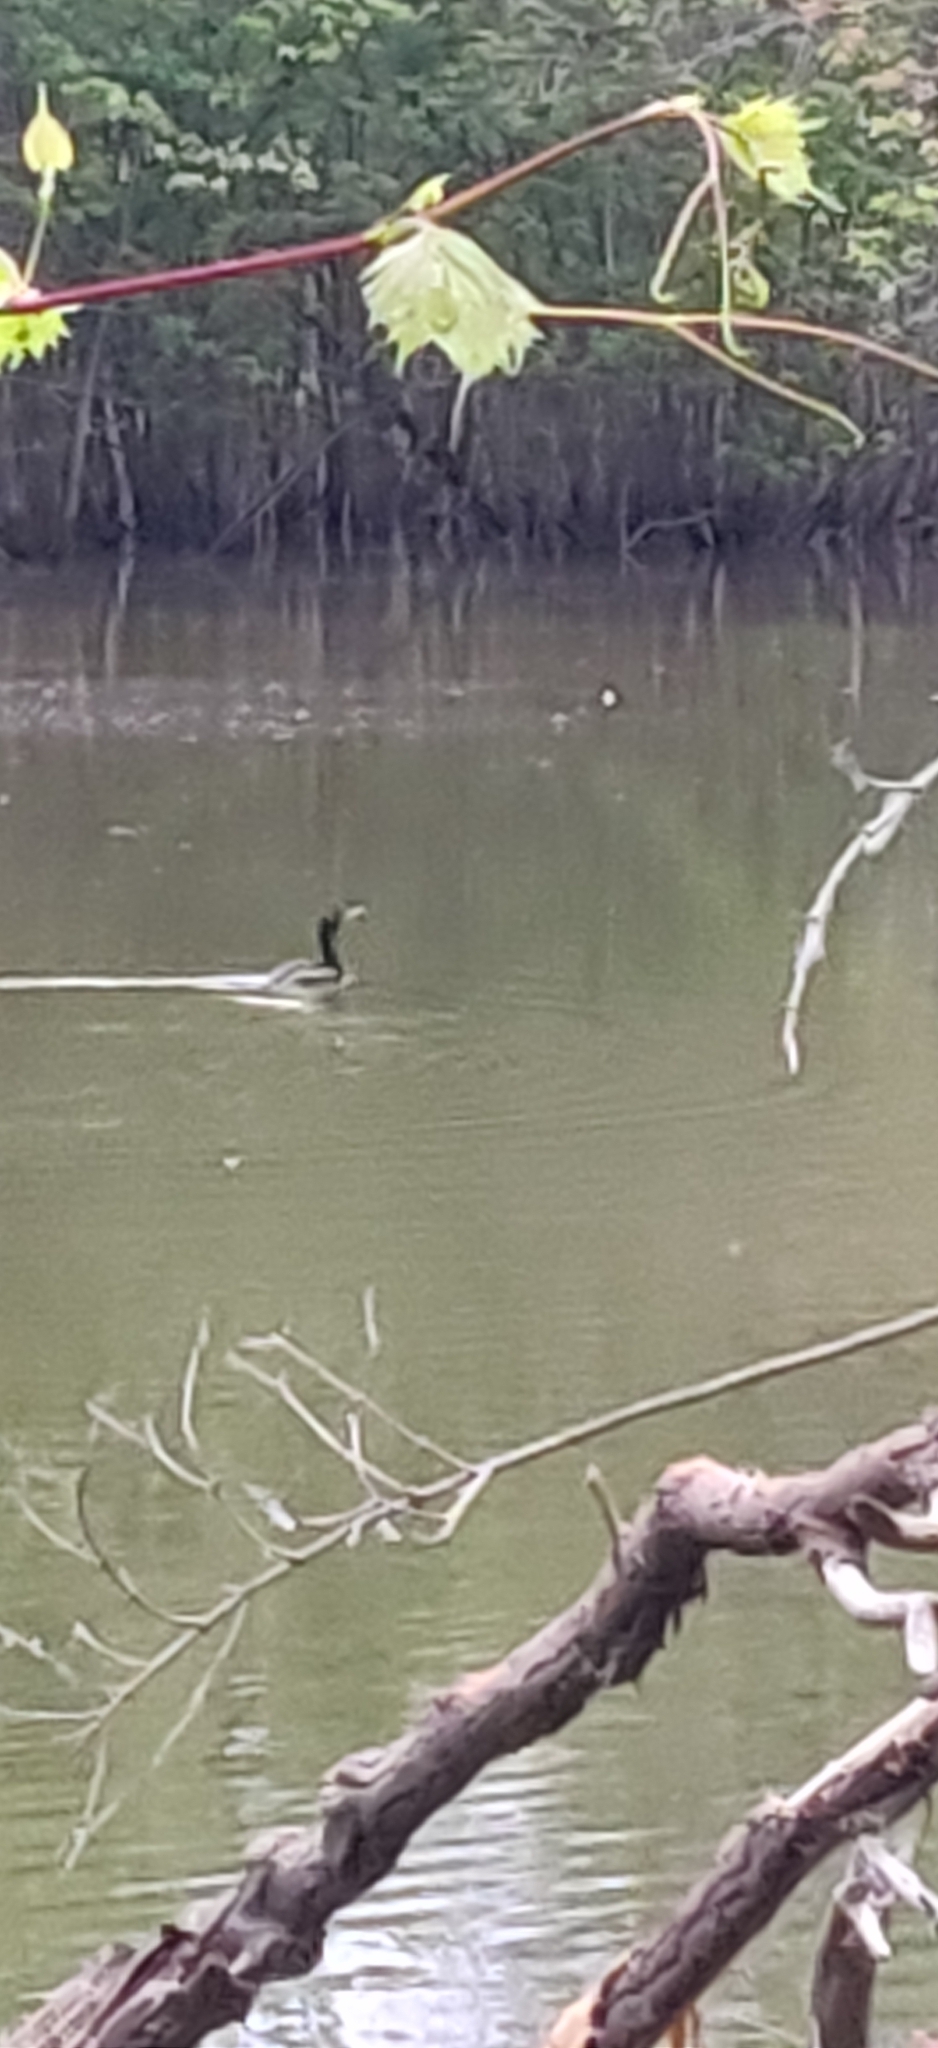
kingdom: Animalia
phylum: Chordata
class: Aves
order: Suliformes
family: Phalacrocoracidae
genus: Phalacrocorax
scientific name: Phalacrocorax auritus
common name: Double-crested cormorant
